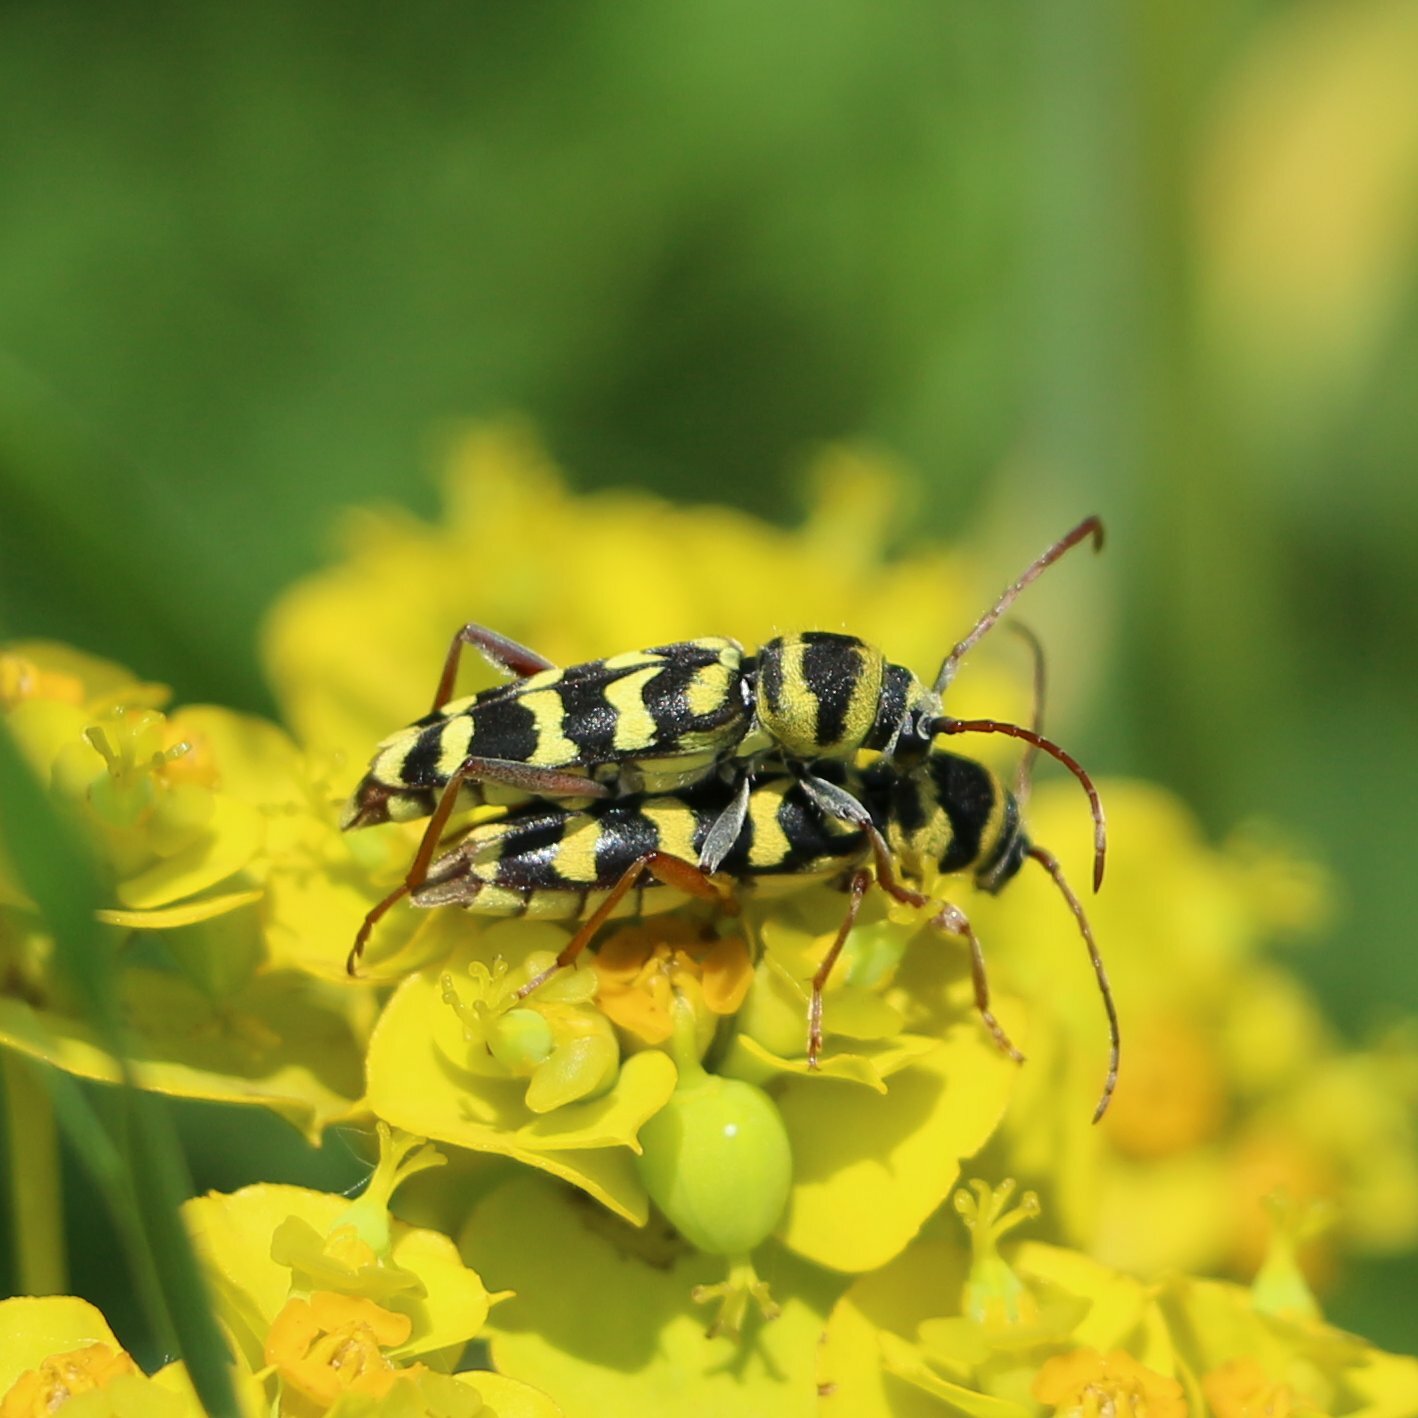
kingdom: Animalia
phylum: Arthropoda
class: Insecta
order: Coleoptera
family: Cerambycidae
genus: Plagionotus
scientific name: Plagionotus floralis
